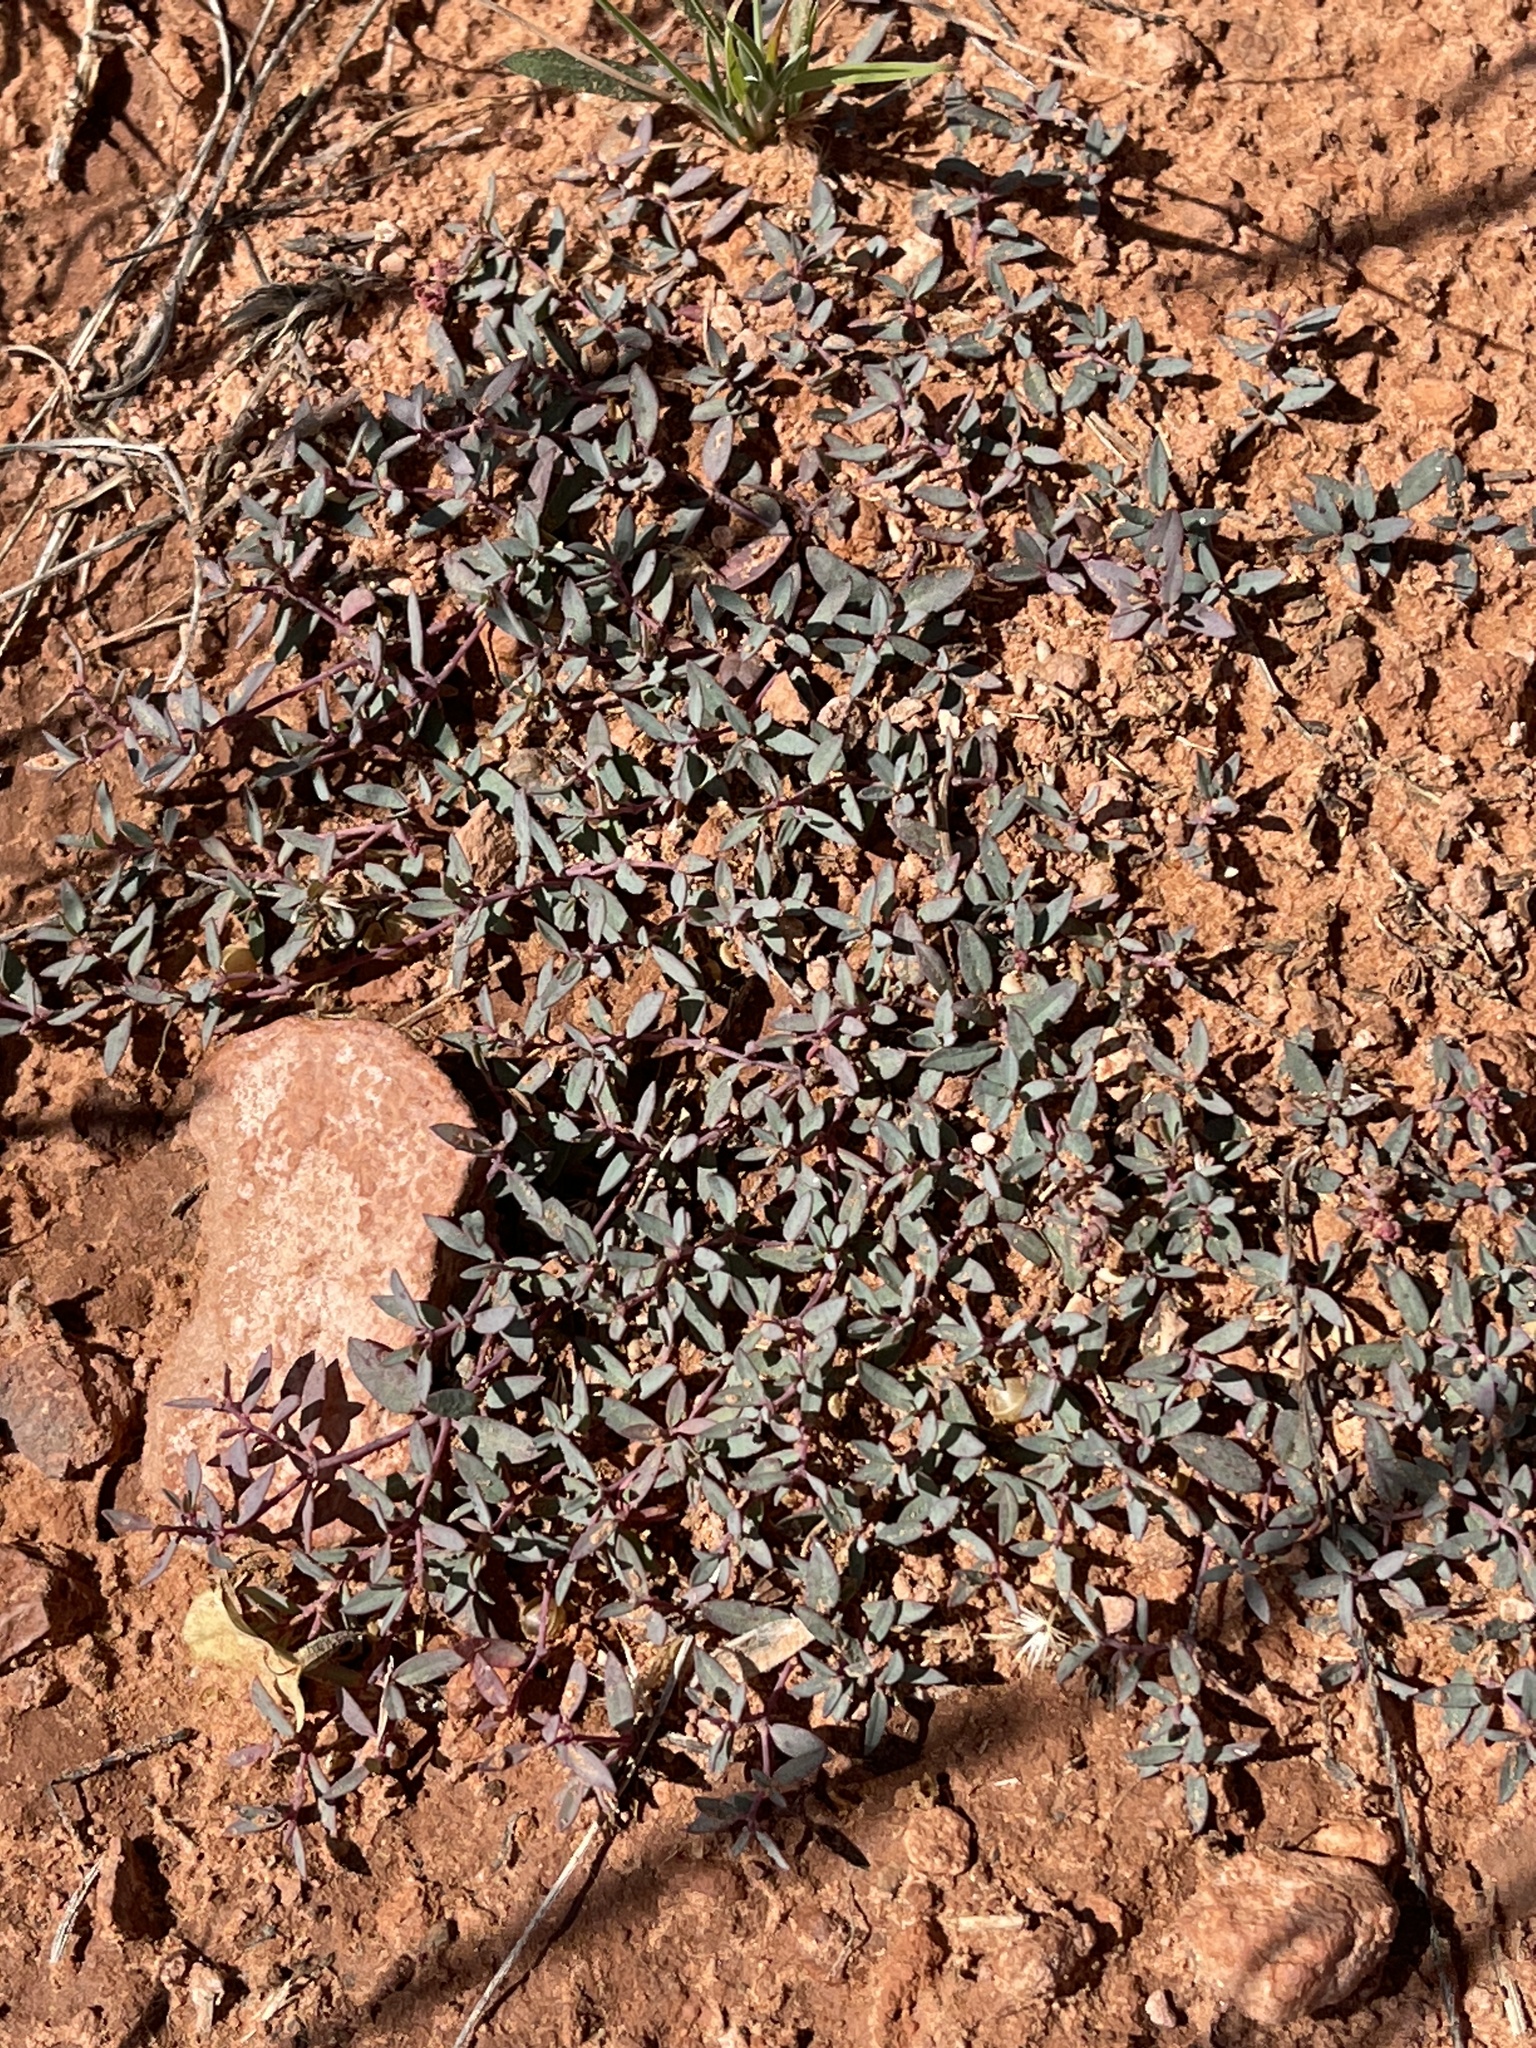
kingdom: Plantae
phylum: Tracheophyta
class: Magnoliopsida
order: Malpighiales
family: Euphorbiaceae
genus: Euphorbia
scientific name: Euphorbia fendleri
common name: Fendler's euphorbia
